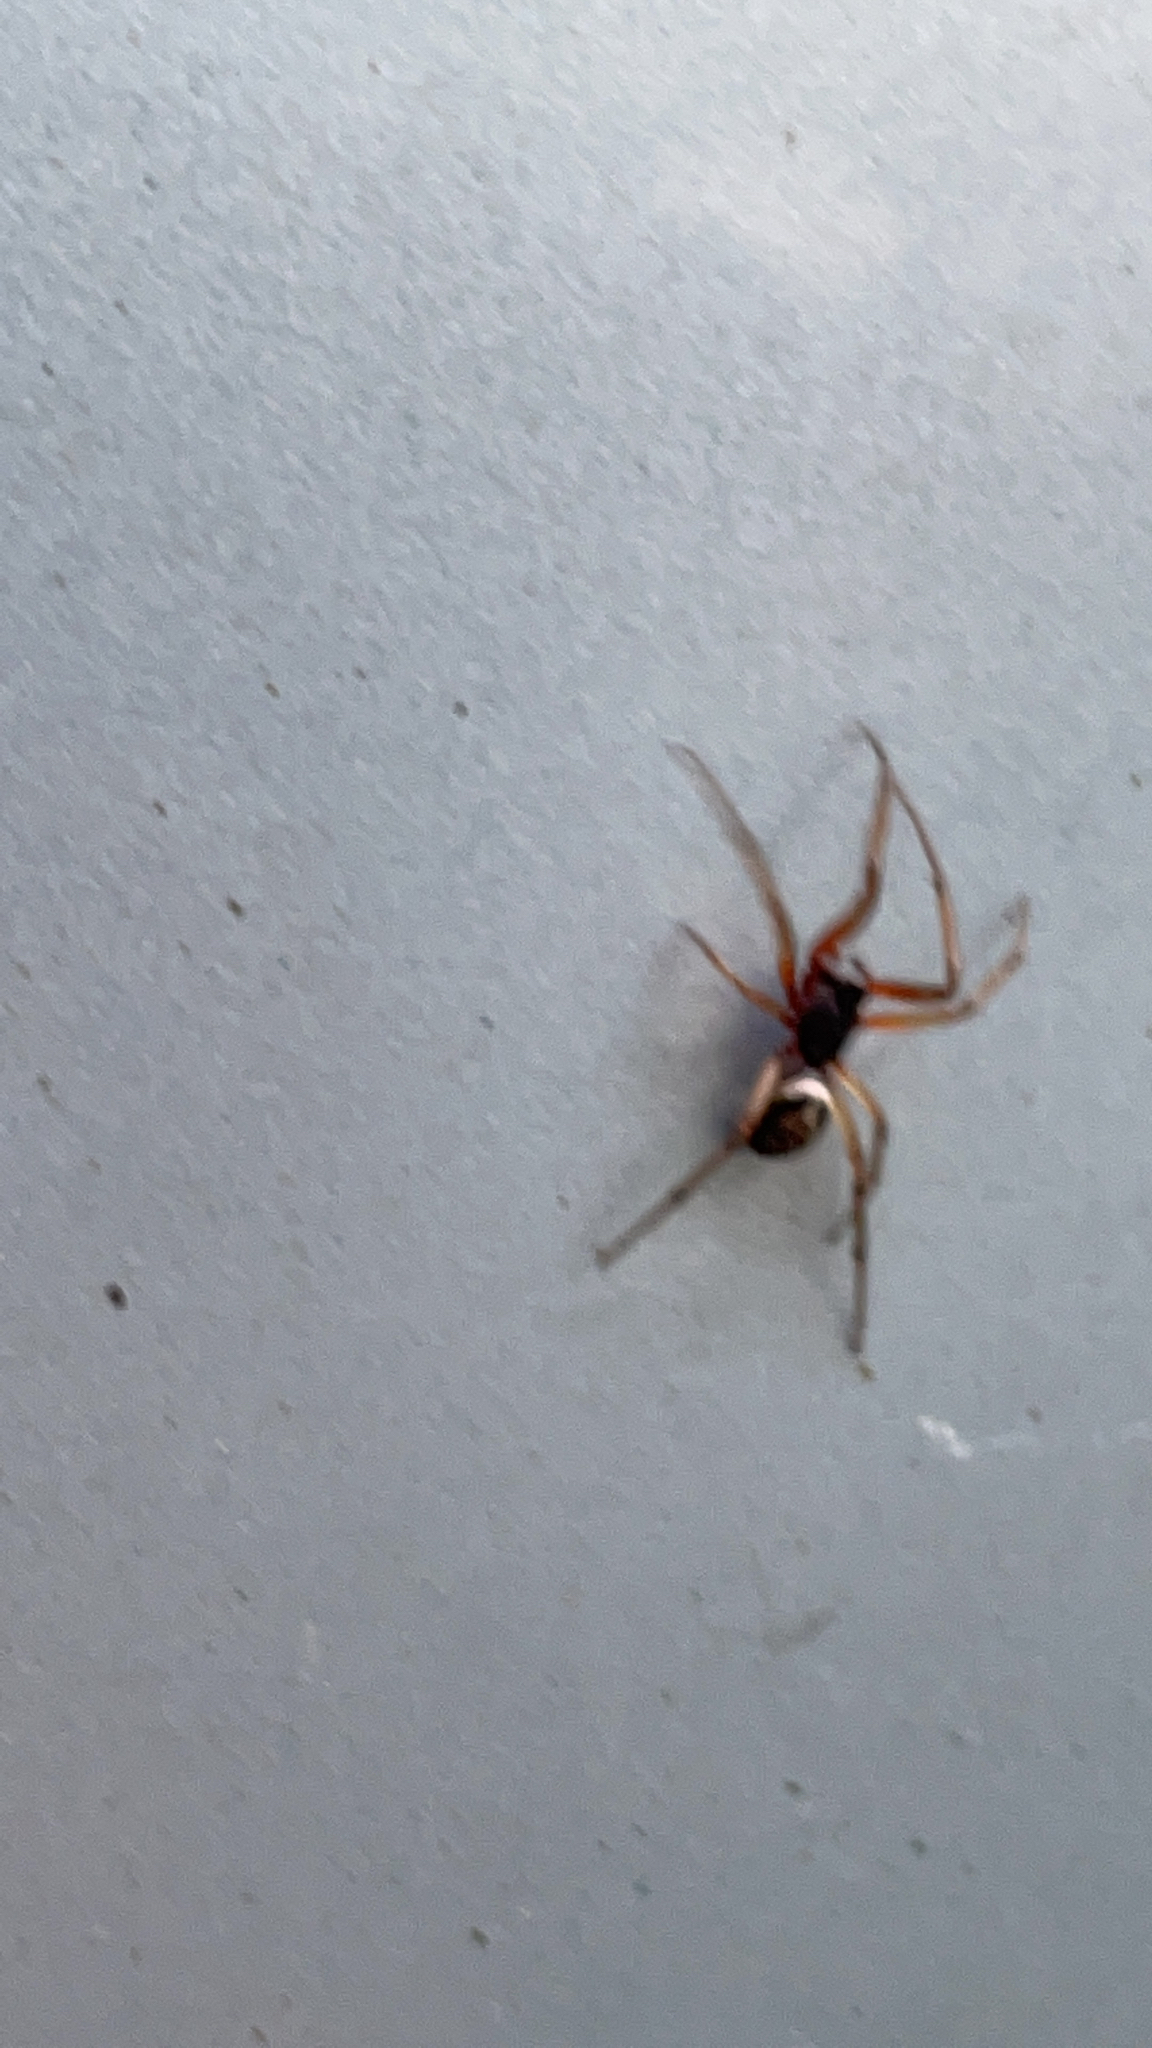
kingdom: Animalia
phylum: Arthropoda
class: Arachnida
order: Araneae
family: Theridiidae
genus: Steatoda
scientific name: Steatoda nobilis
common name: Cobweb weaver
